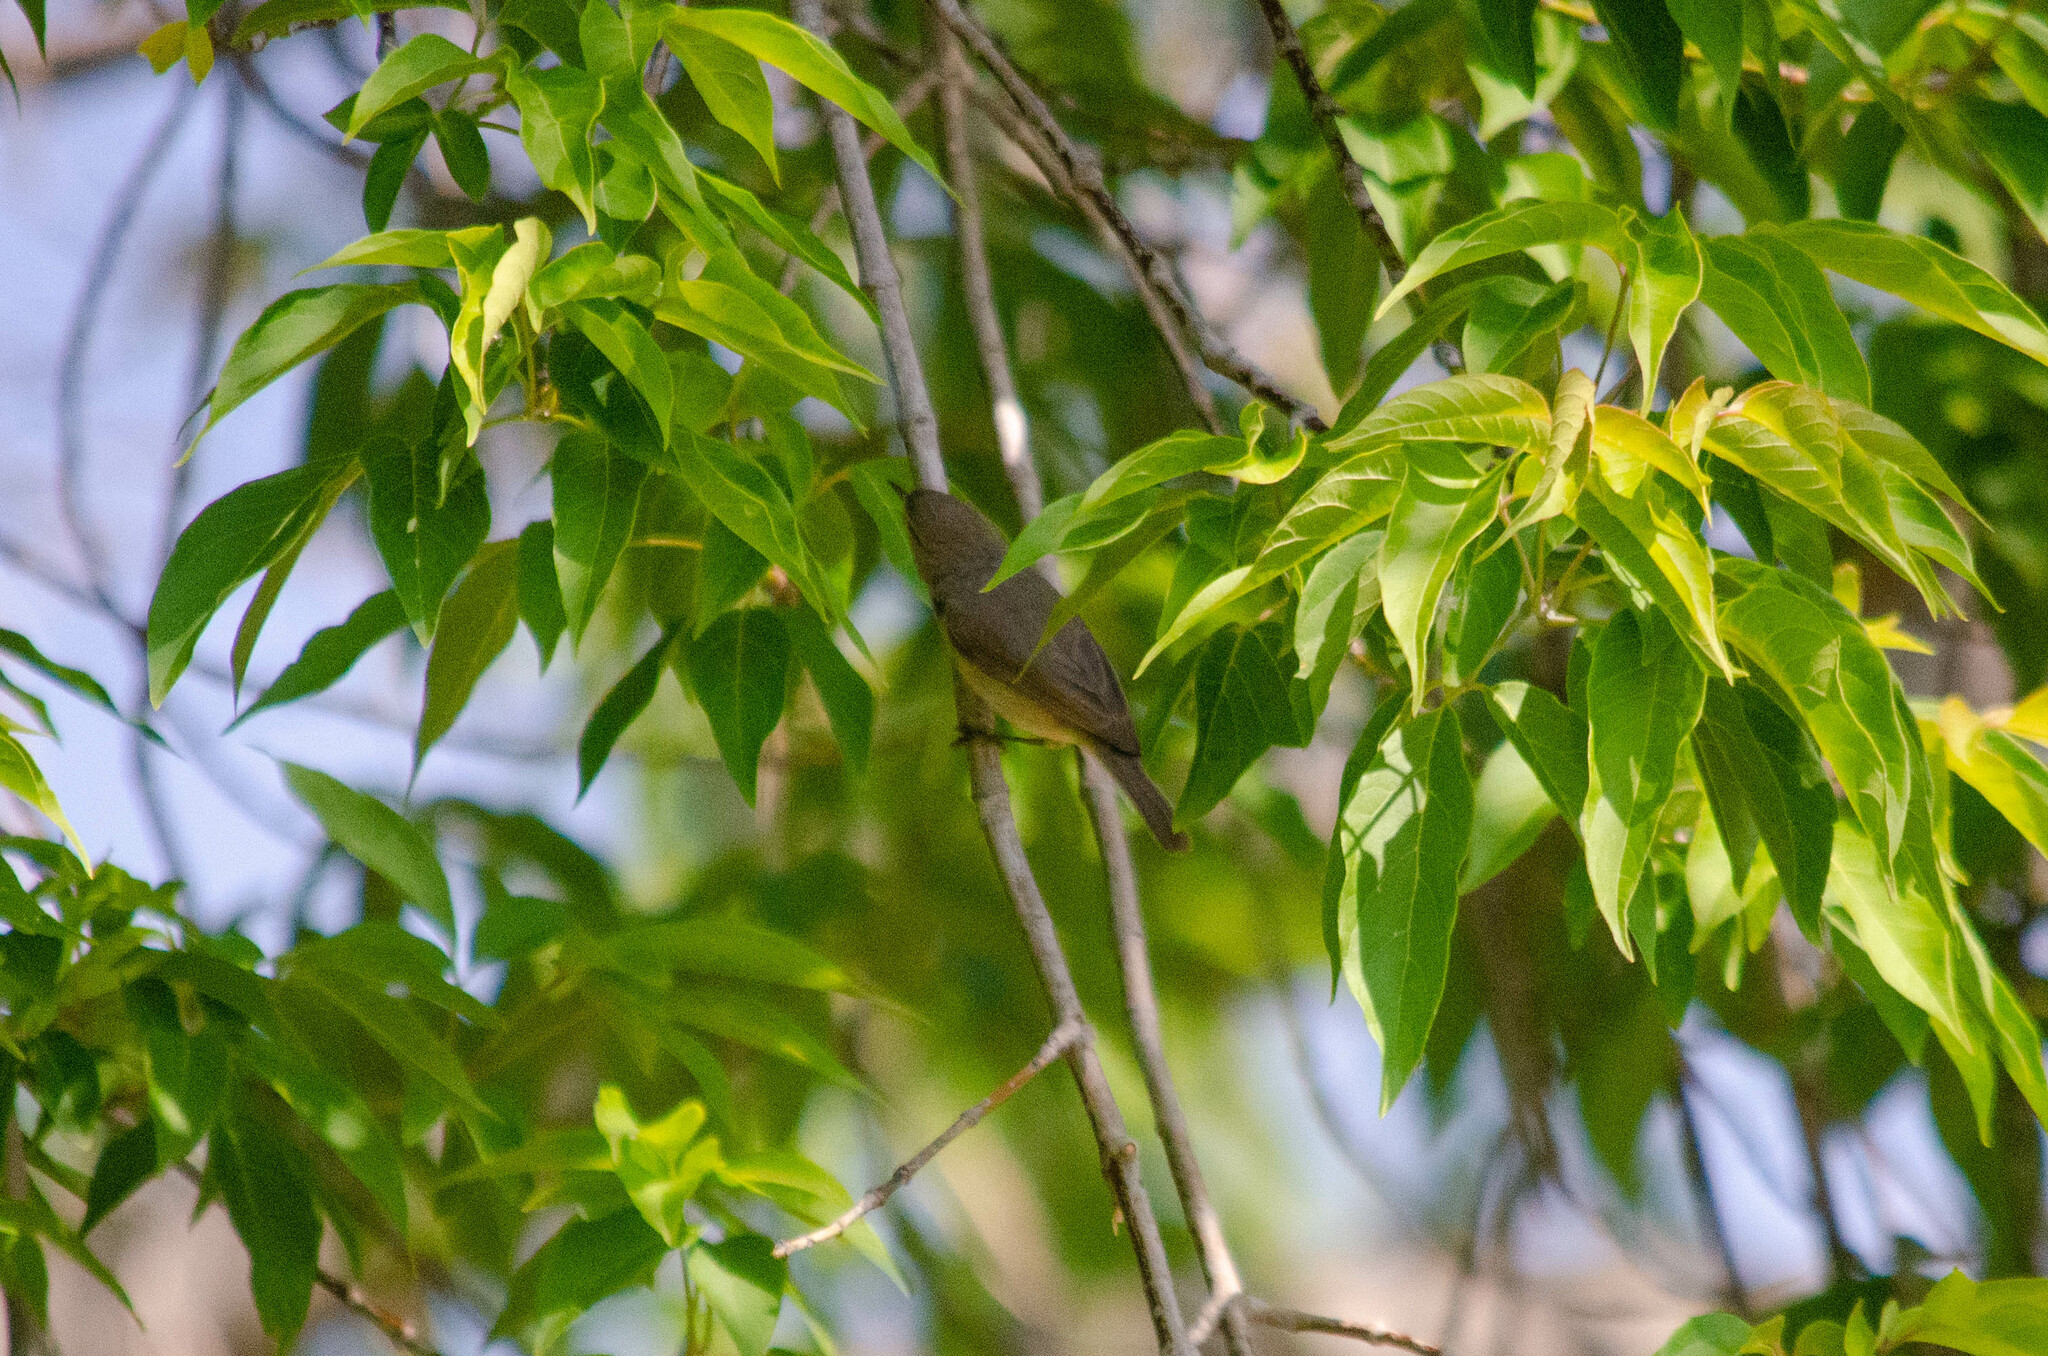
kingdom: Animalia
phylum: Chordata
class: Aves
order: Passeriformes
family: Phylloscopidae
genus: Phylloscopus
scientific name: Phylloscopus collybita
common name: Common chiffchaff
